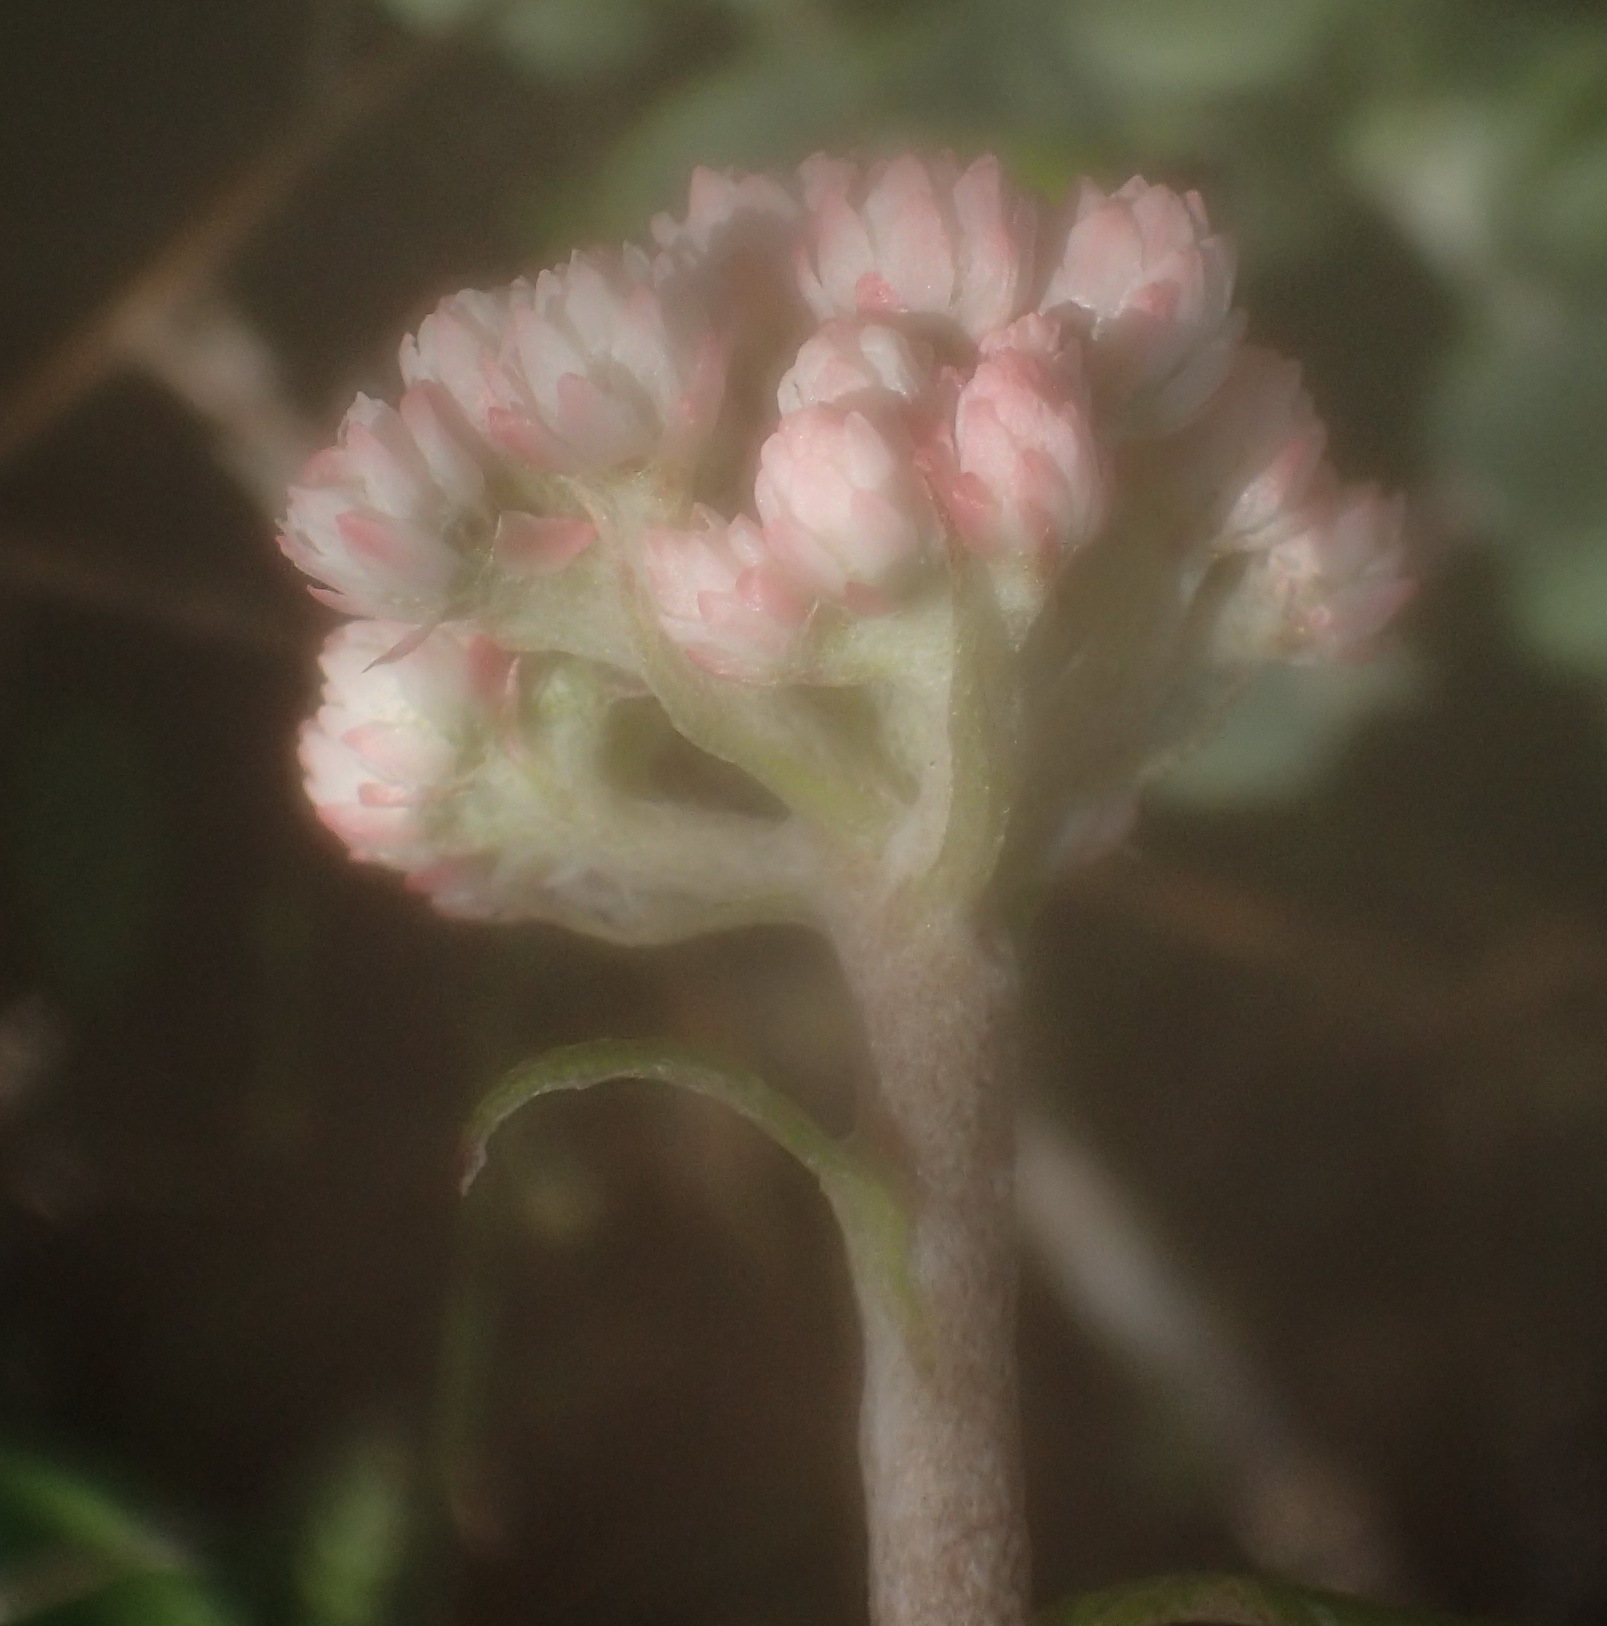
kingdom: Plantae
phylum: Tracheophyta
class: Magnoliopsida
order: Asterales
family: Asteraceae
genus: Helichrysum
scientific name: Helichrysum felinum
